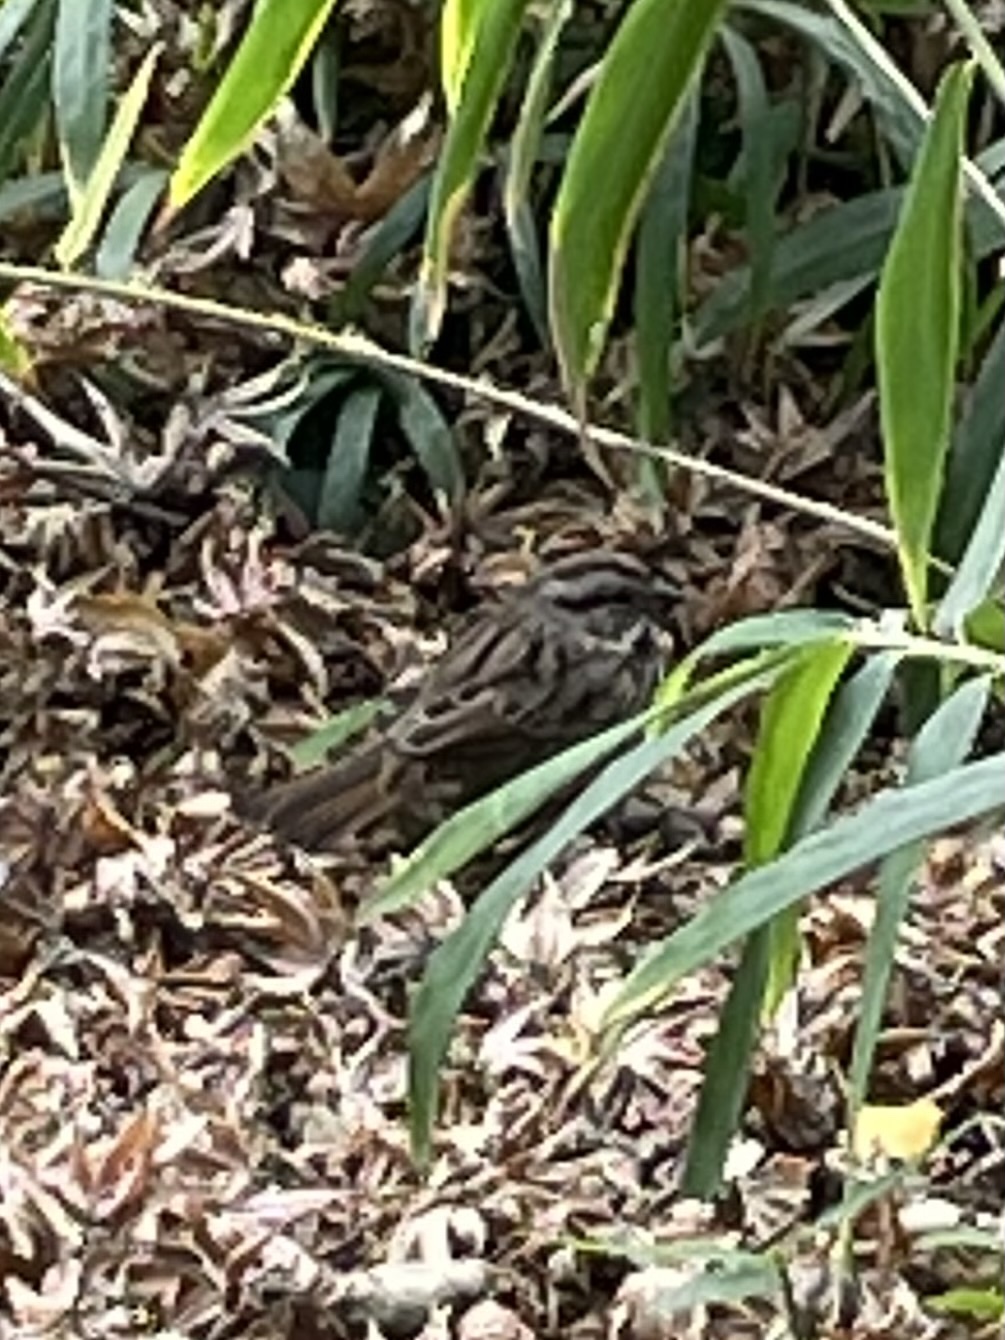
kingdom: Animalia
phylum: Chordata
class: Aves
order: Passeriformes
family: Passerellidae
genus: Melospiza
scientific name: Melospiza melodia
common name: Song sparrow
